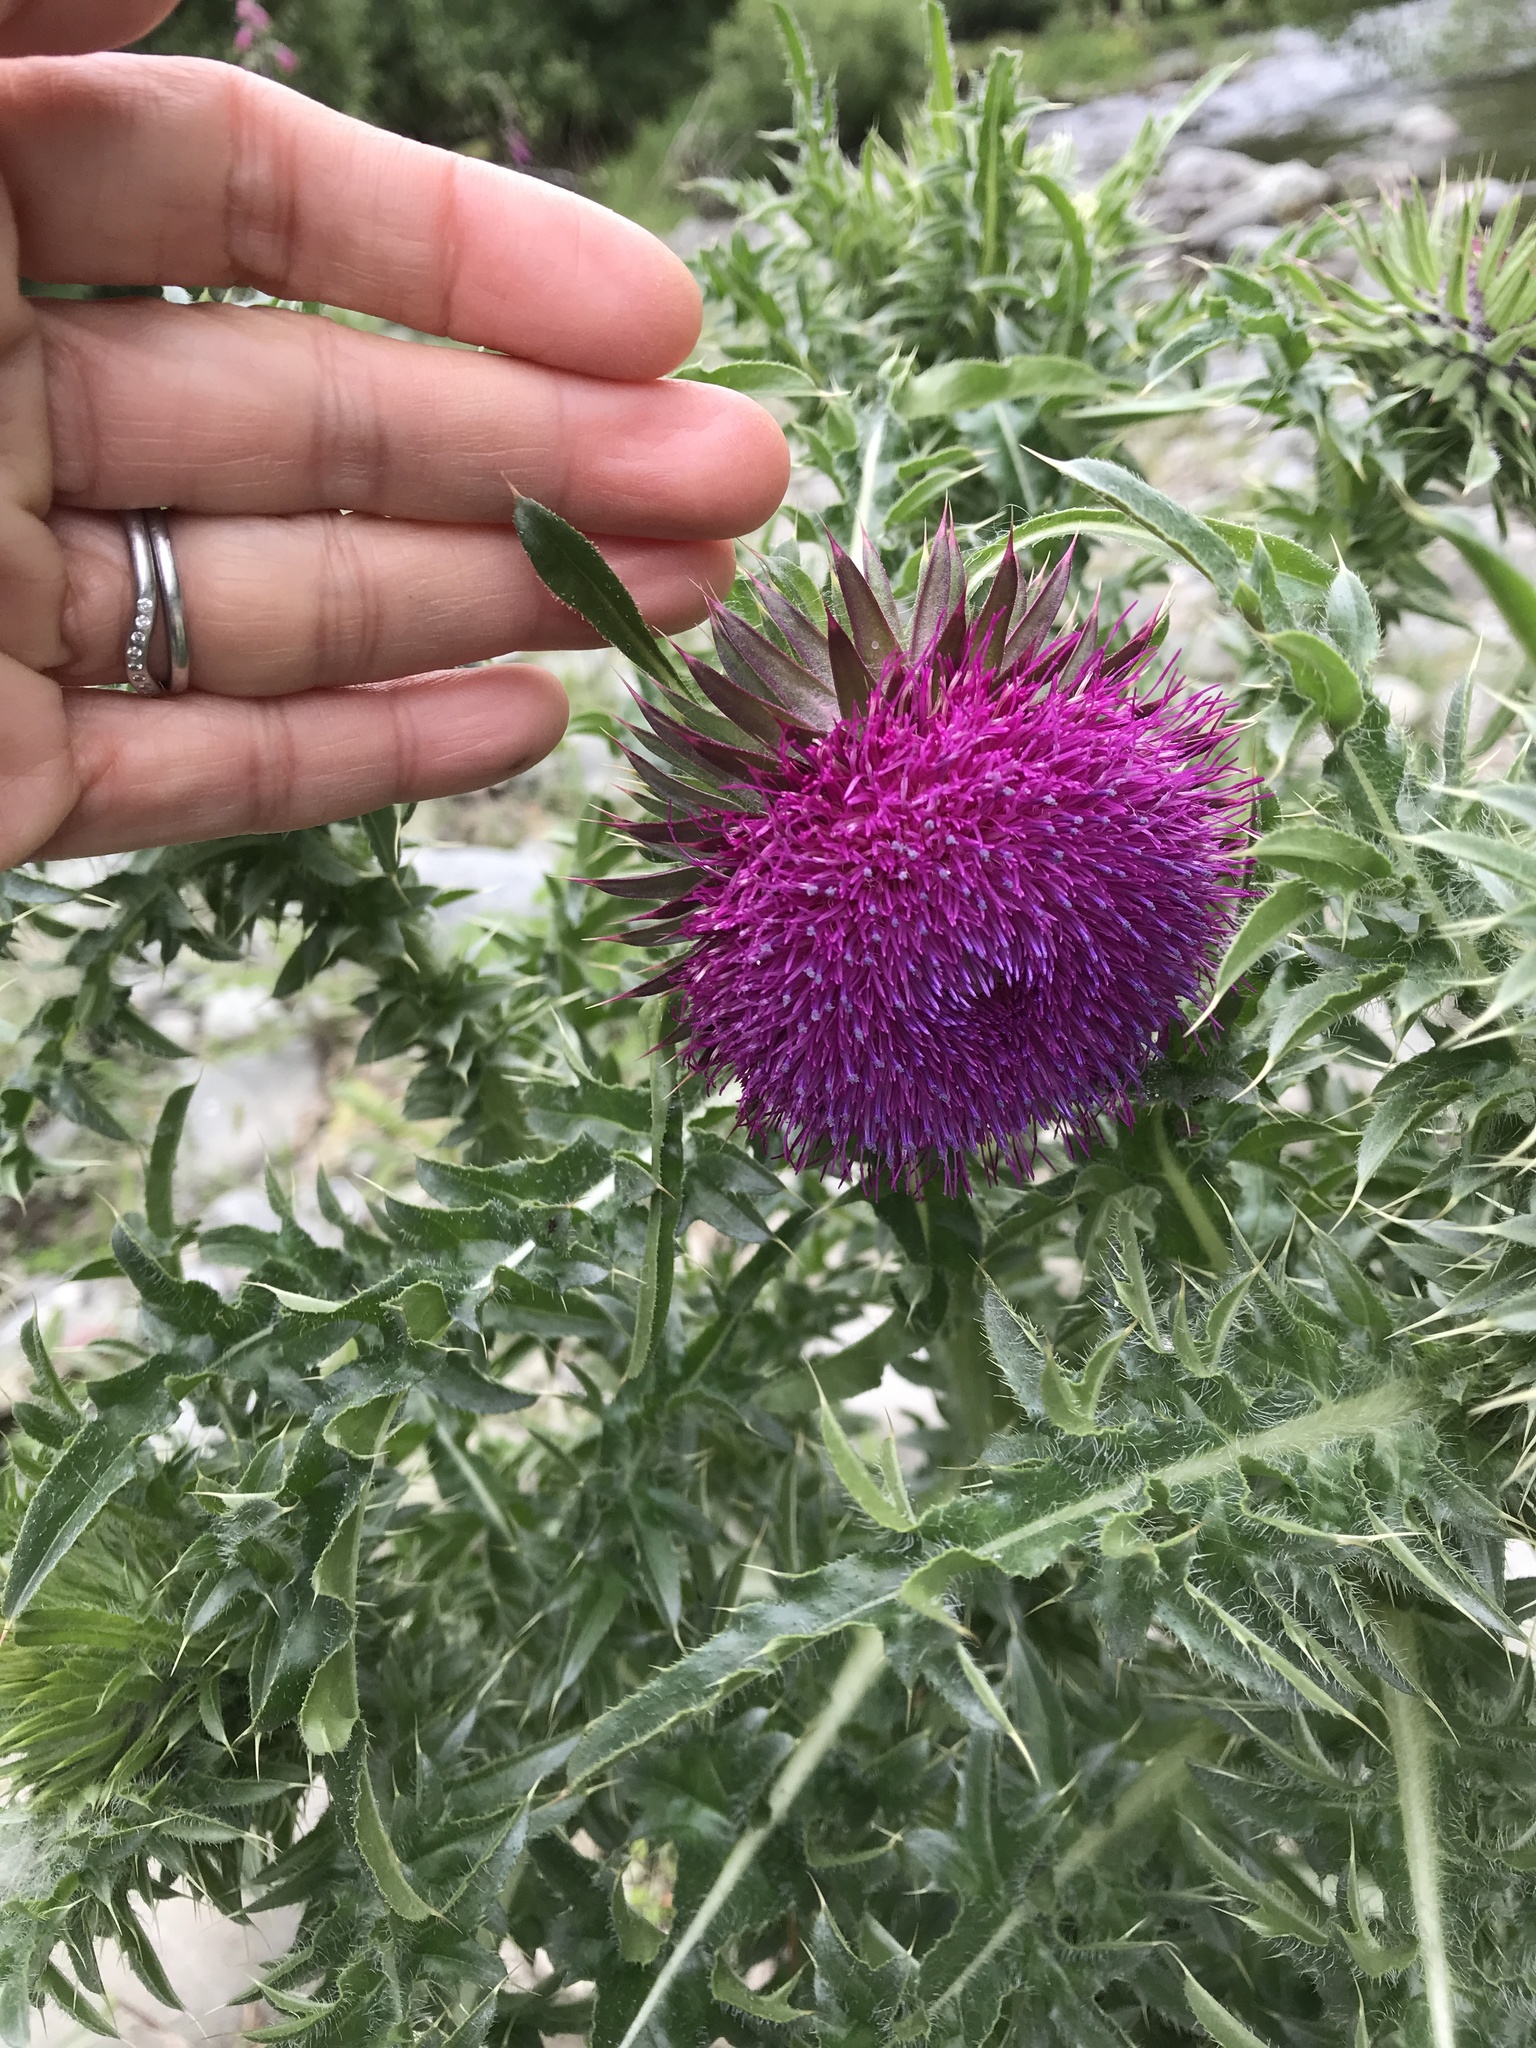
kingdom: Plantae
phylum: Tracheophyta
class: Magnoliopsida
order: Asterales
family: Asteraceae
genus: Carduus
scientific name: Carduus nutans
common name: Musk thistle
